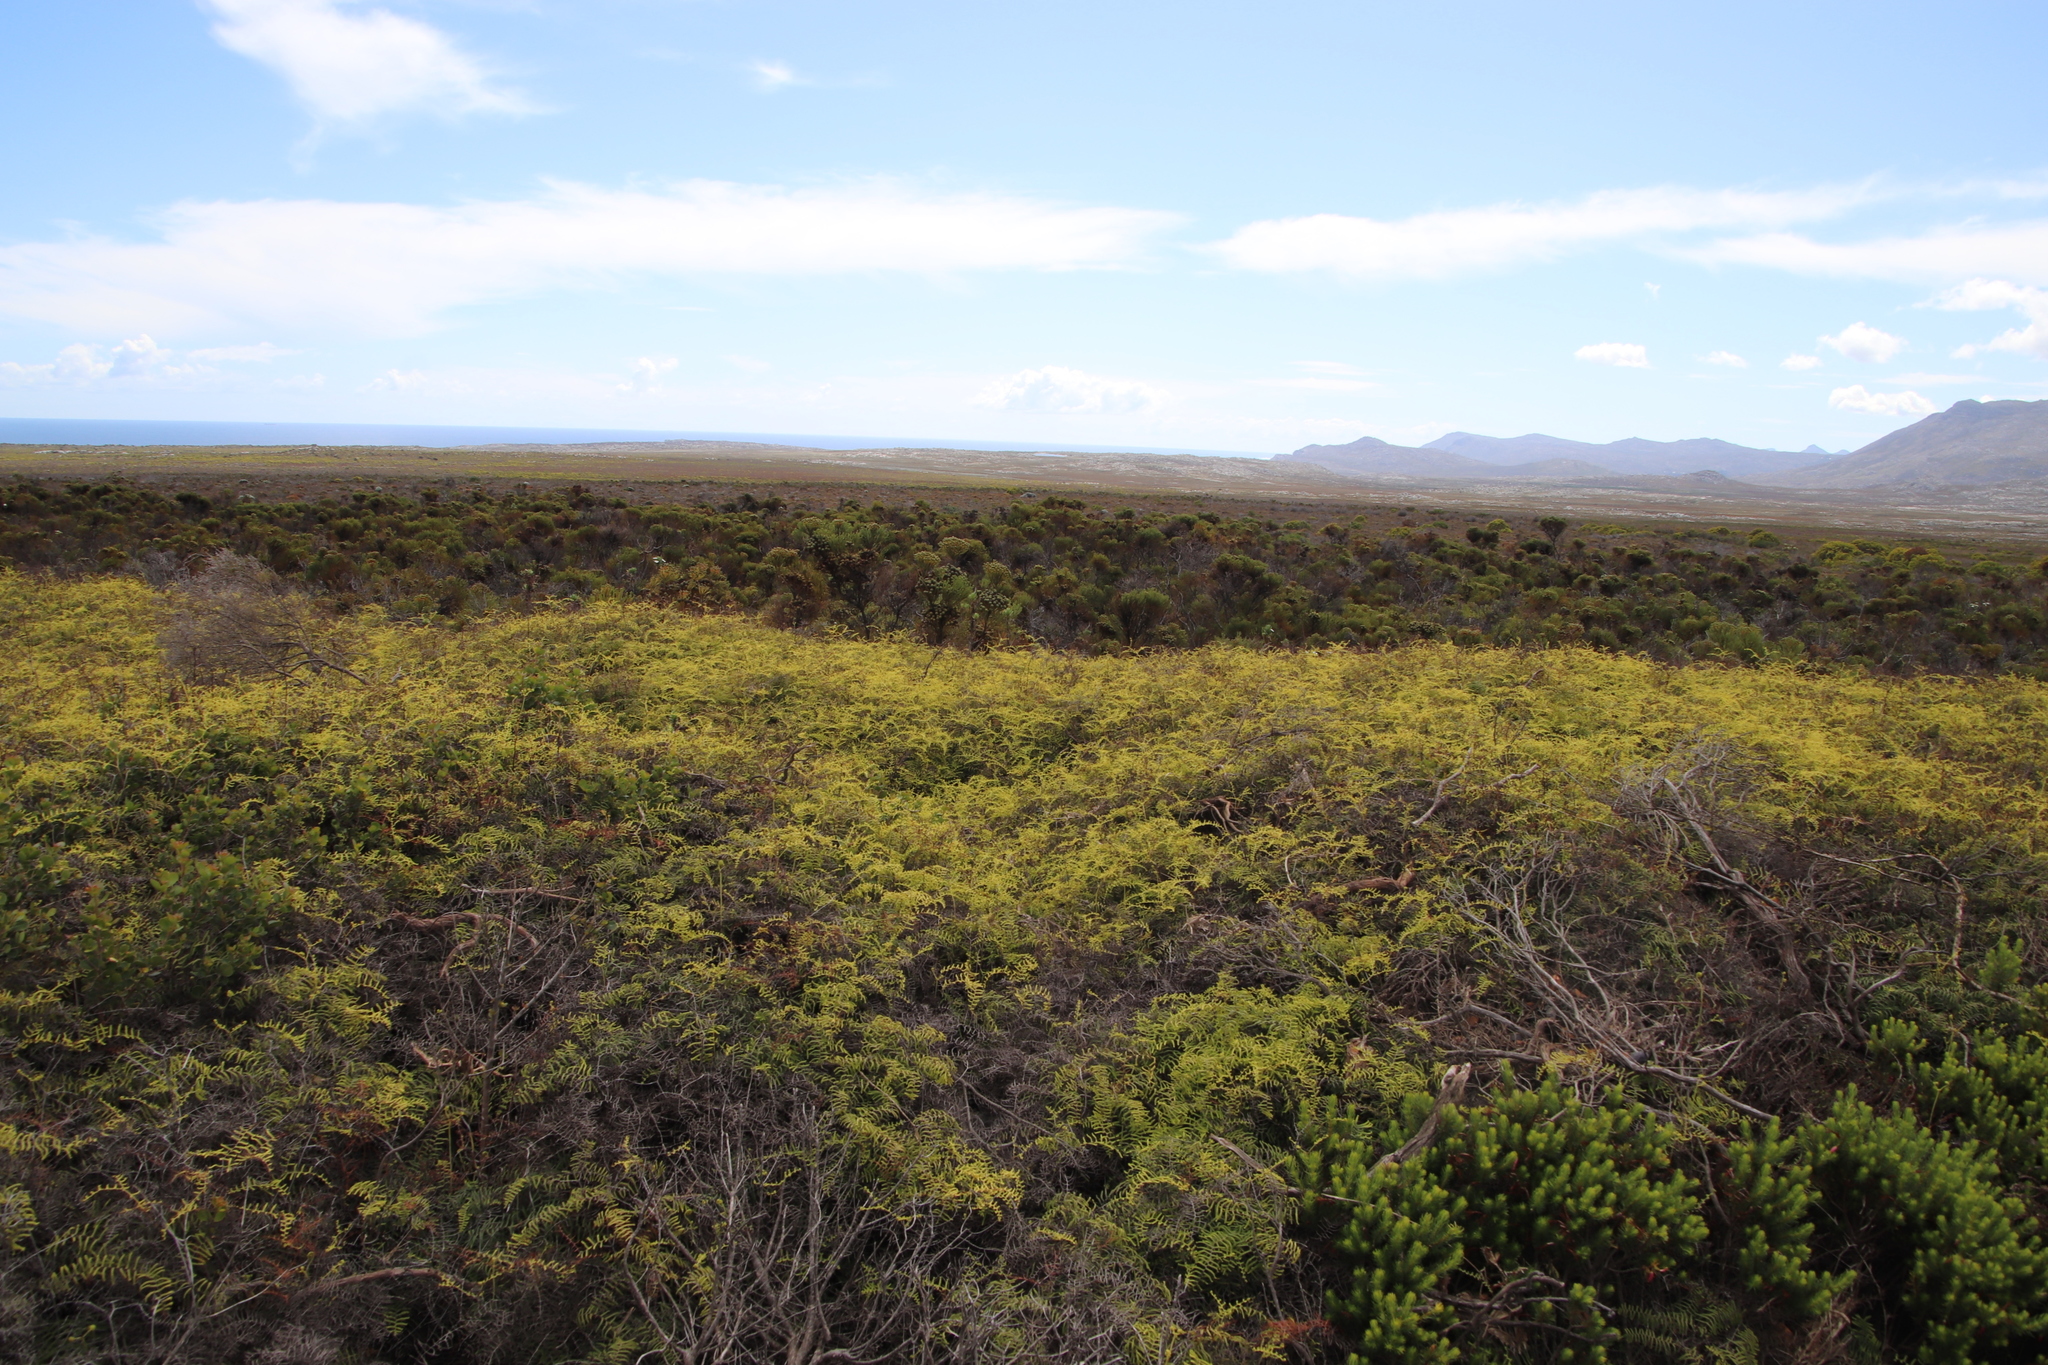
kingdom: Plantae
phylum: Tracheophyta
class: Polypodiopsida
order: Gleicheniales
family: Gleicheniaceae
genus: Gleichenia
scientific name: Gleichenia polypodioides
